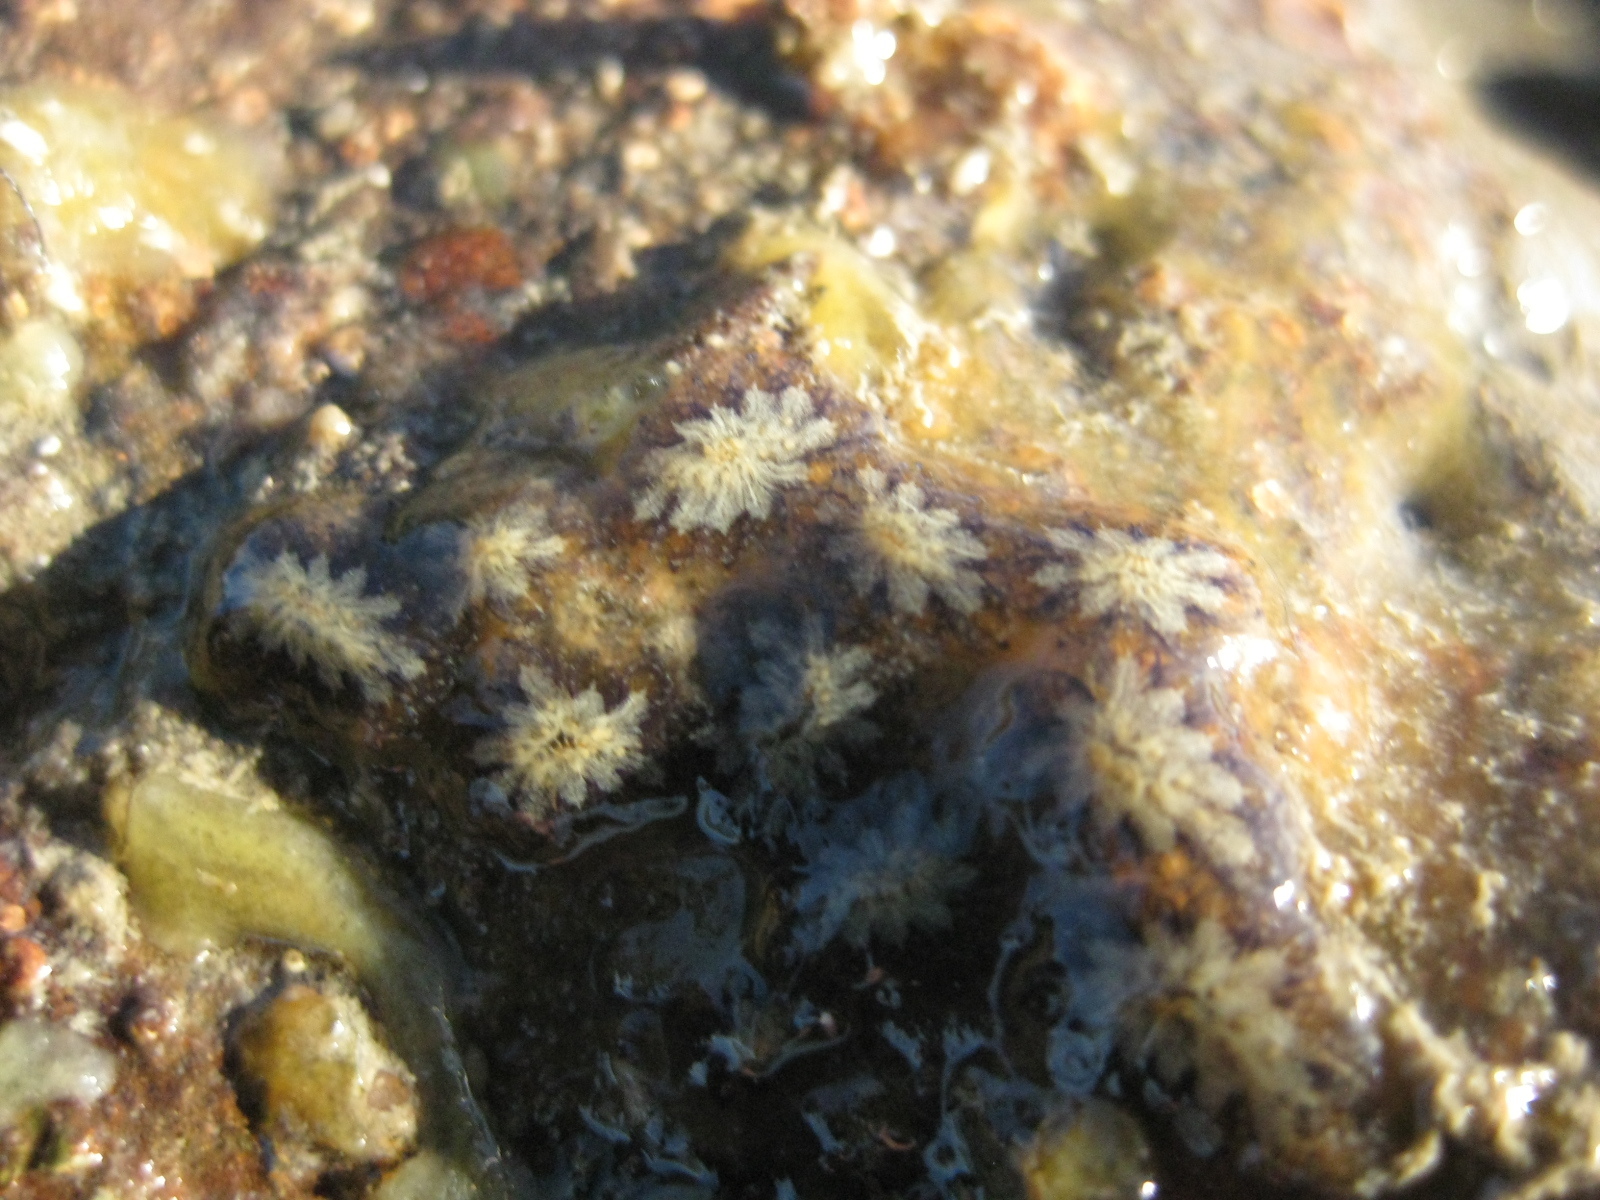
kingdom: Animalia
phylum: Chordata
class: Ascidiacea
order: Stolidobranchia
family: Styelidae
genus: Botryllus
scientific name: Botryllus schlosseri
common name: Golden star tunicate
